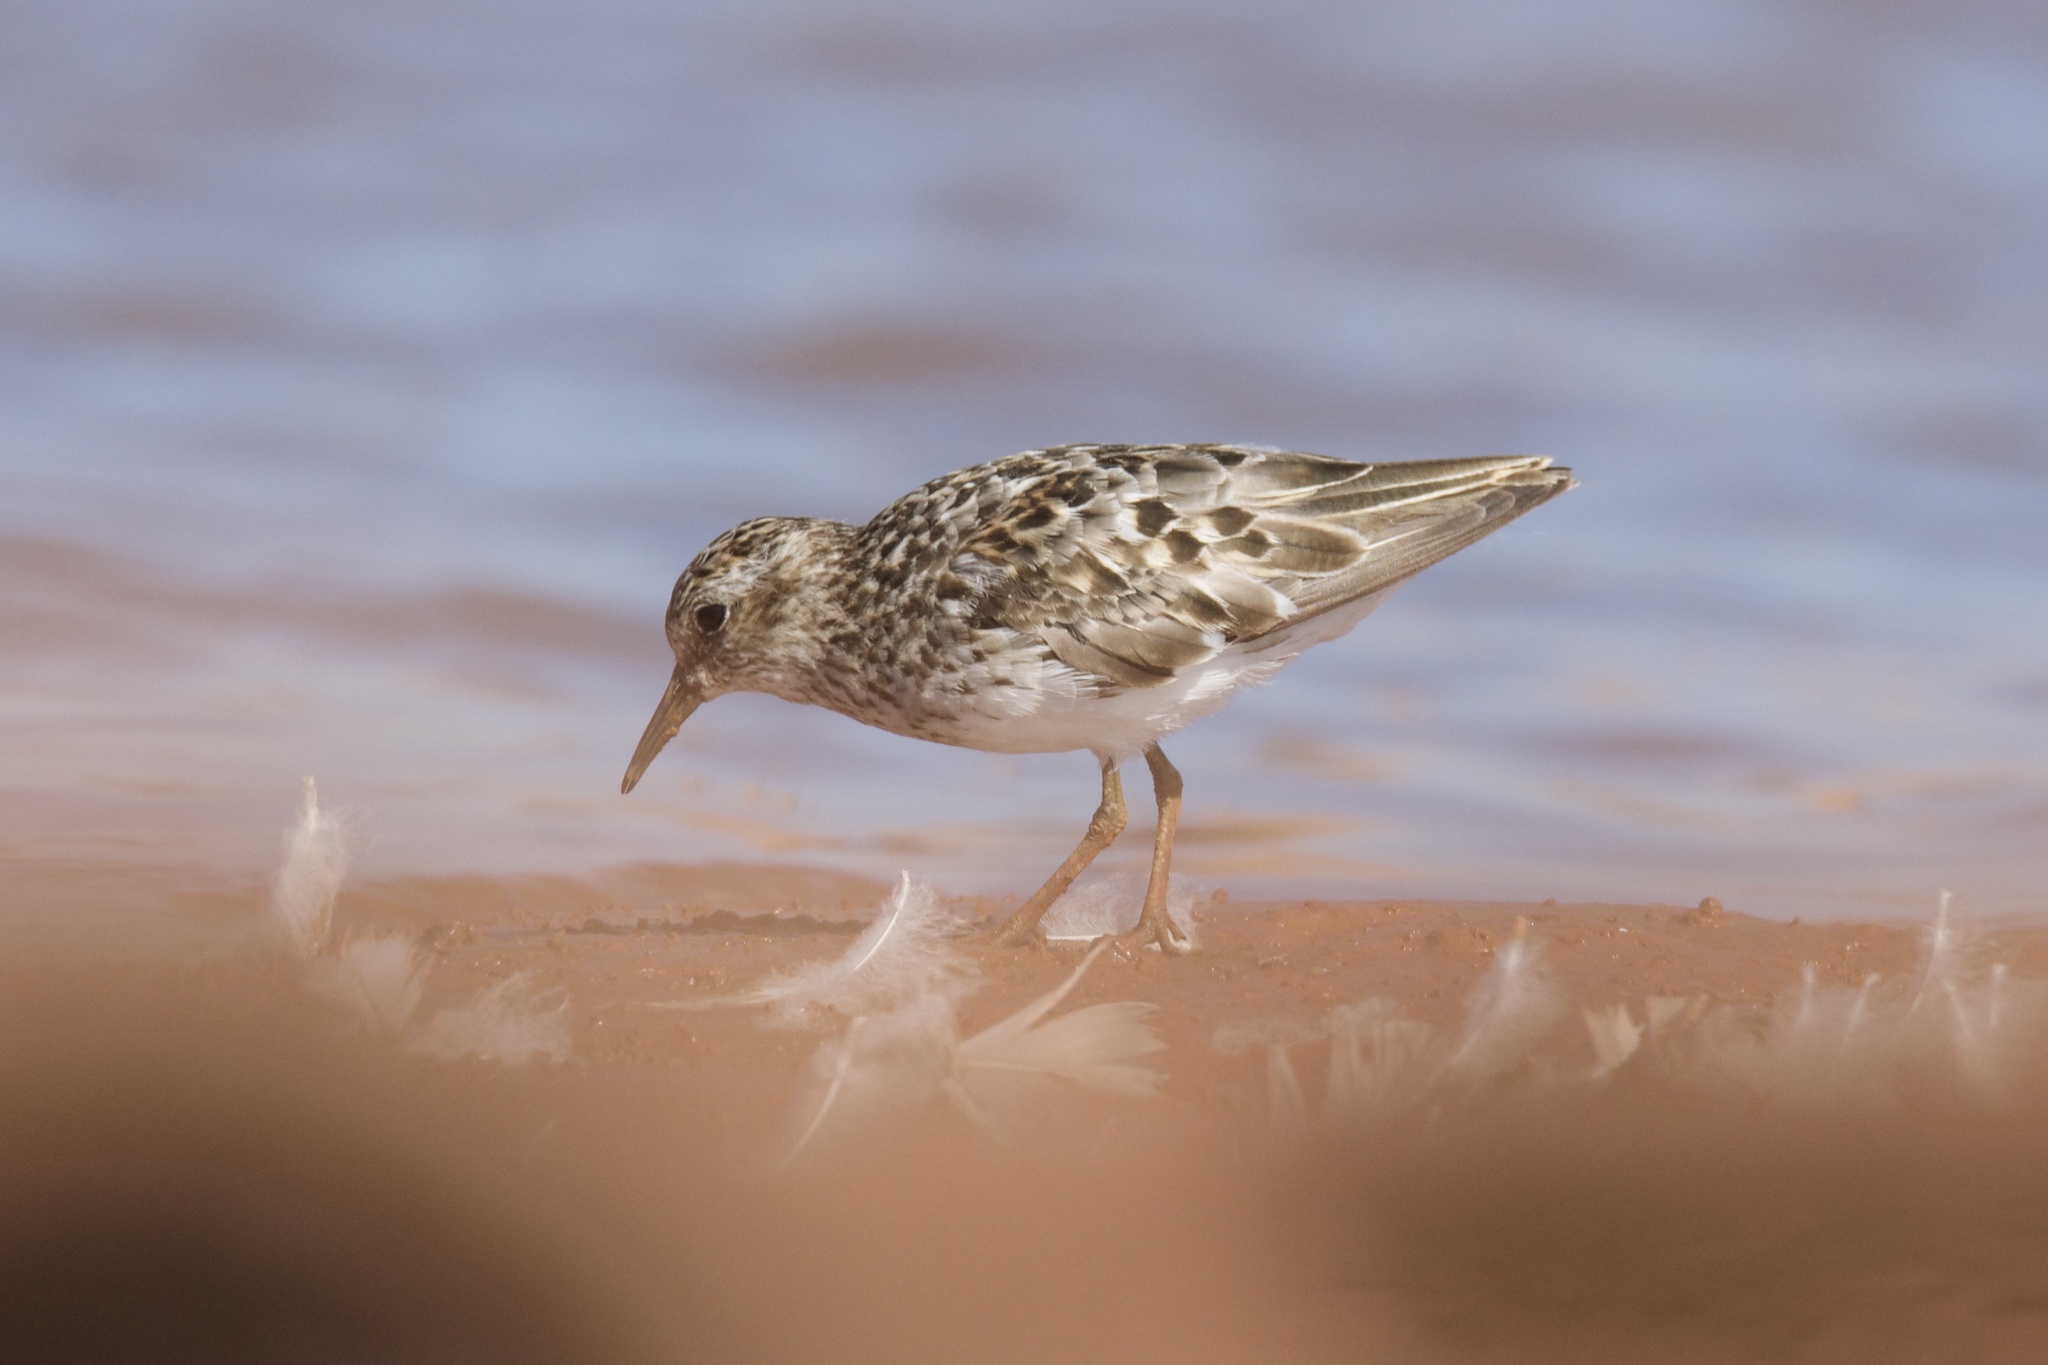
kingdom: Animalia
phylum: Chordata
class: Aves
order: Charadriiformes
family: Scolopacidae
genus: Calidris
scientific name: Calidris minutilla
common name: Least sandpiper
